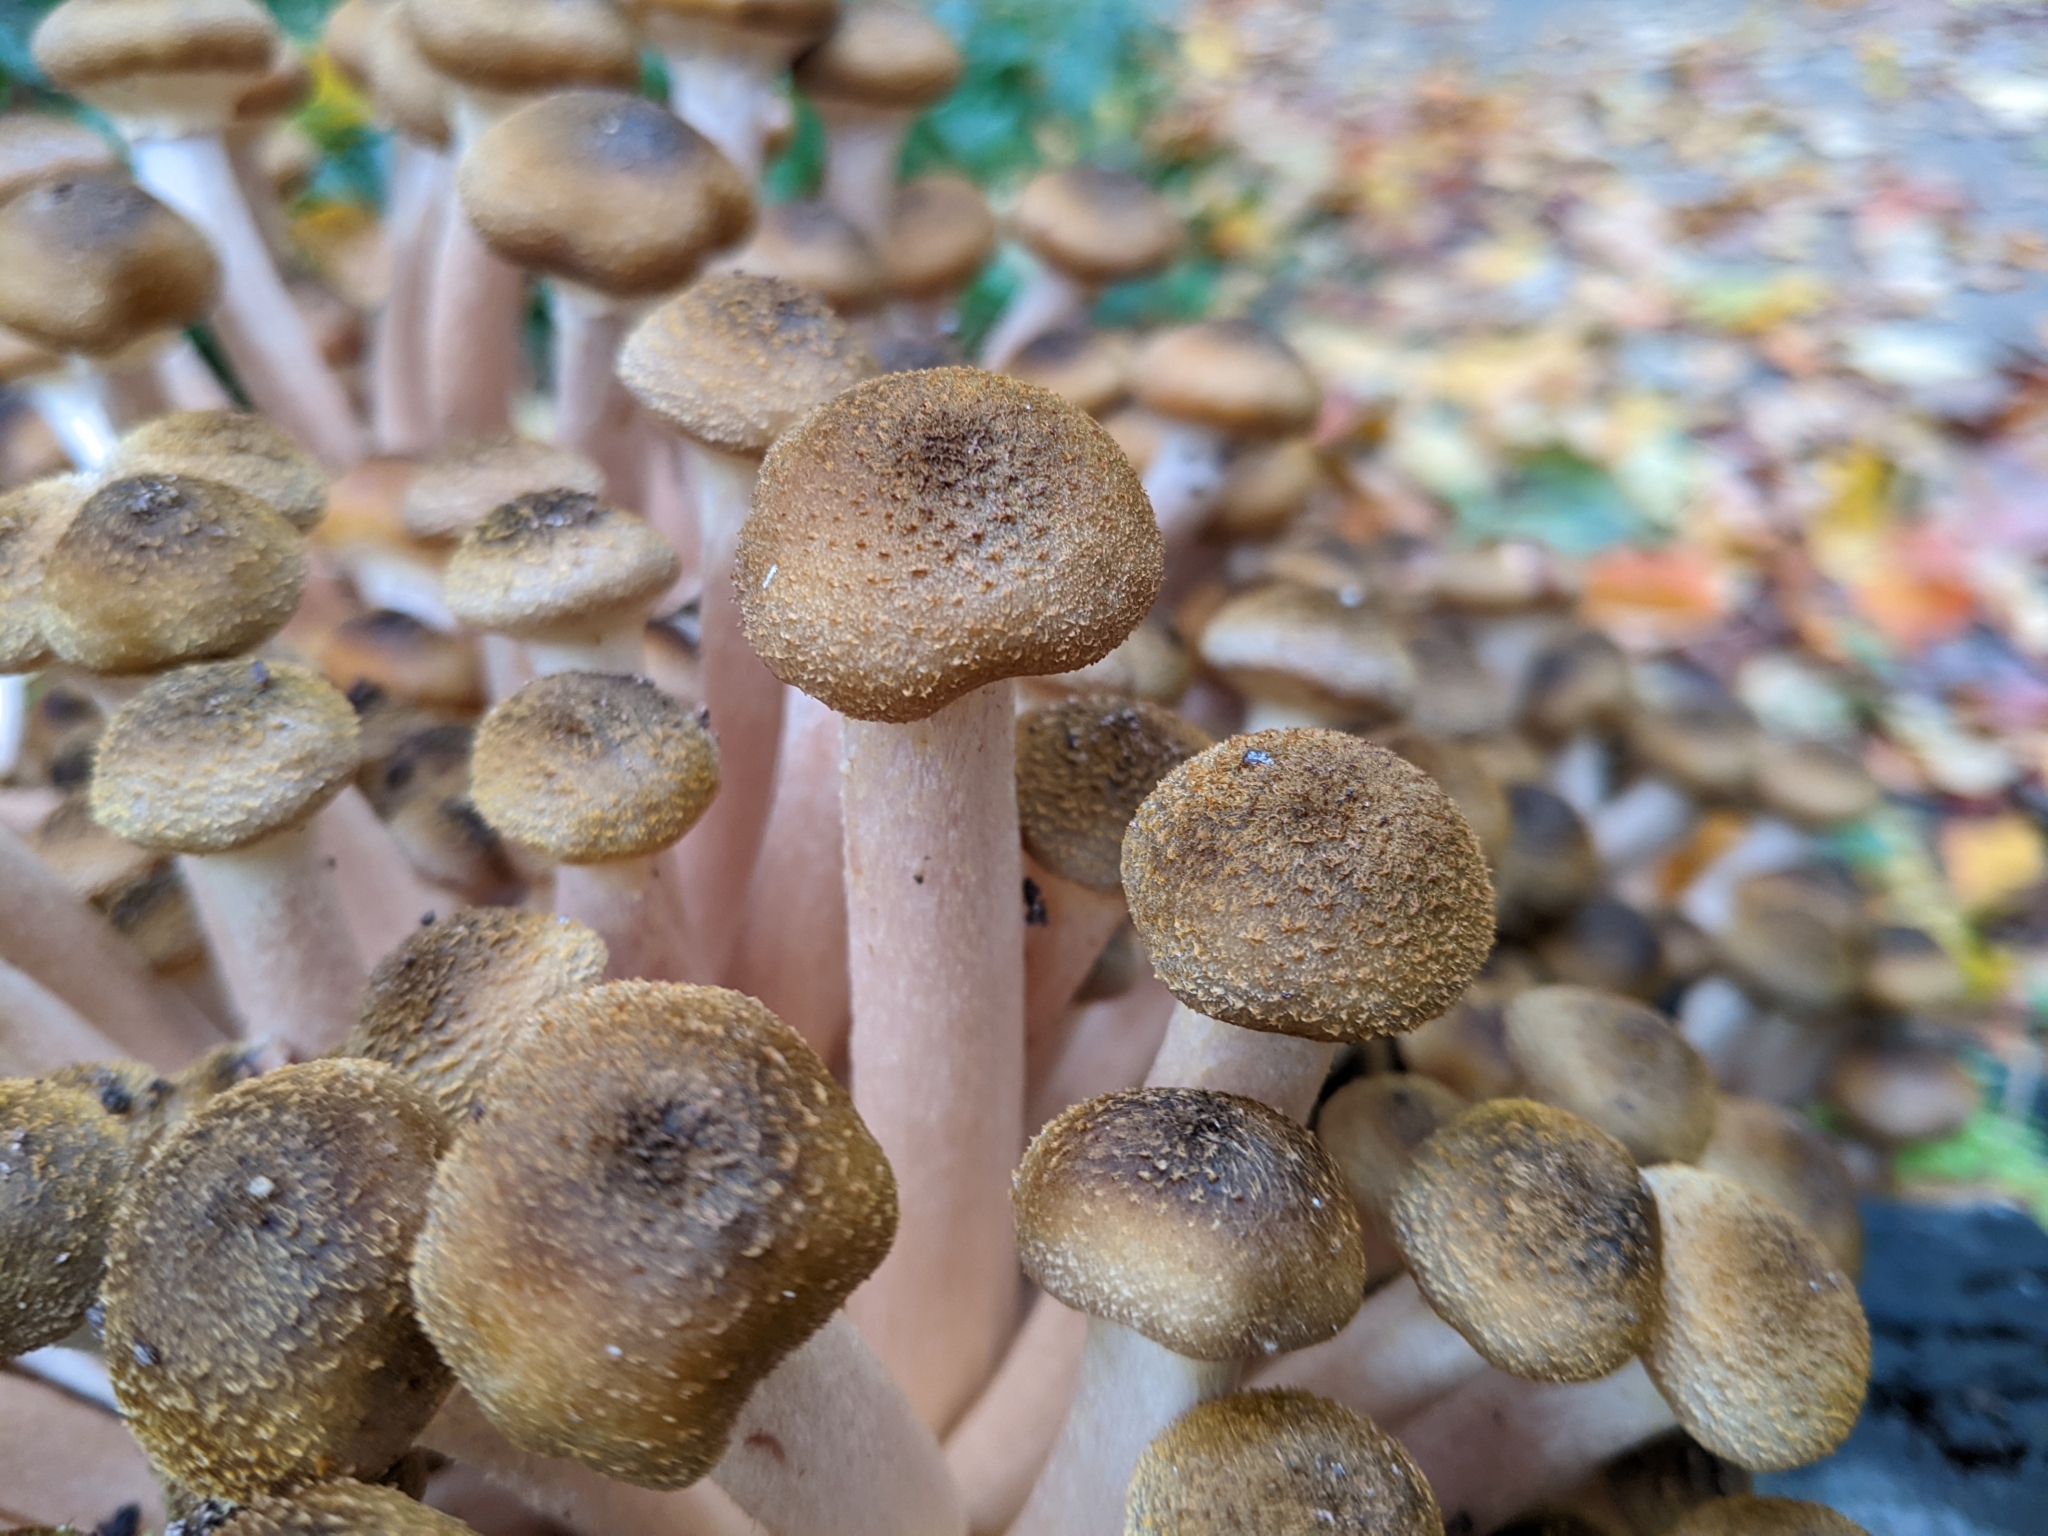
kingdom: Fungi
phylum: Basidiomycota
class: Agaricomycetes
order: Agaricales
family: Physalacriaceae
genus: Armillaria
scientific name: Armillaria mellea
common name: Honey fungus
